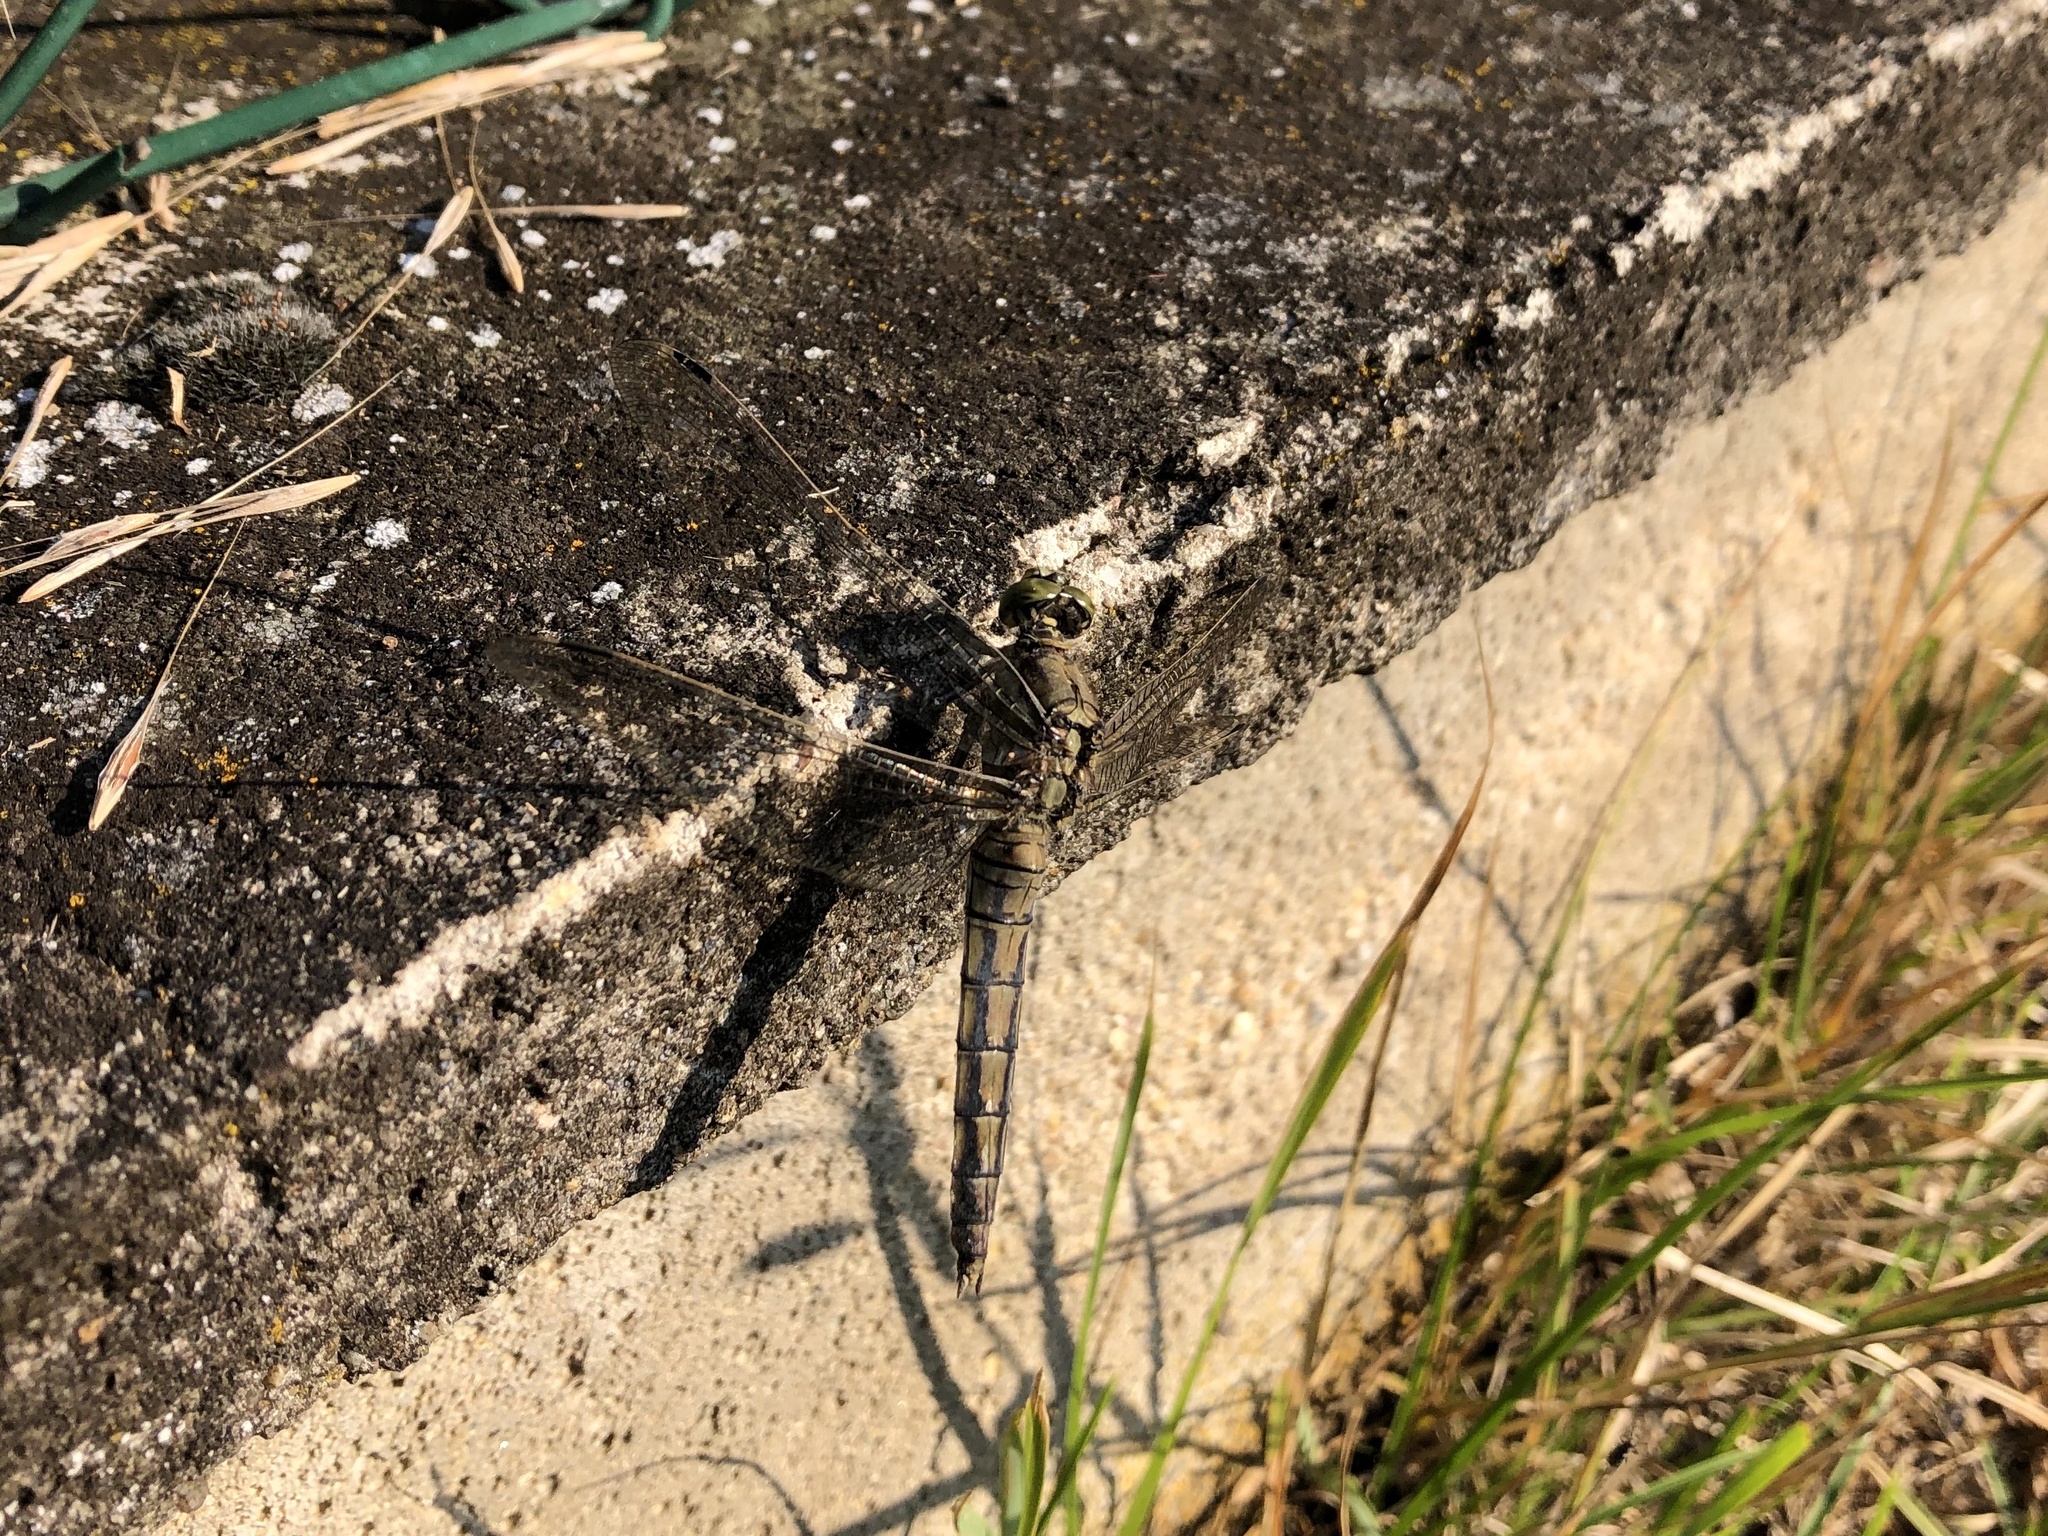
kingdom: Animalia
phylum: Arthropoda
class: Insecta
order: Odonata
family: Libellulidae
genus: Orthetrum
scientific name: Orthetrum cancellatum
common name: Black-tailed skimmer
